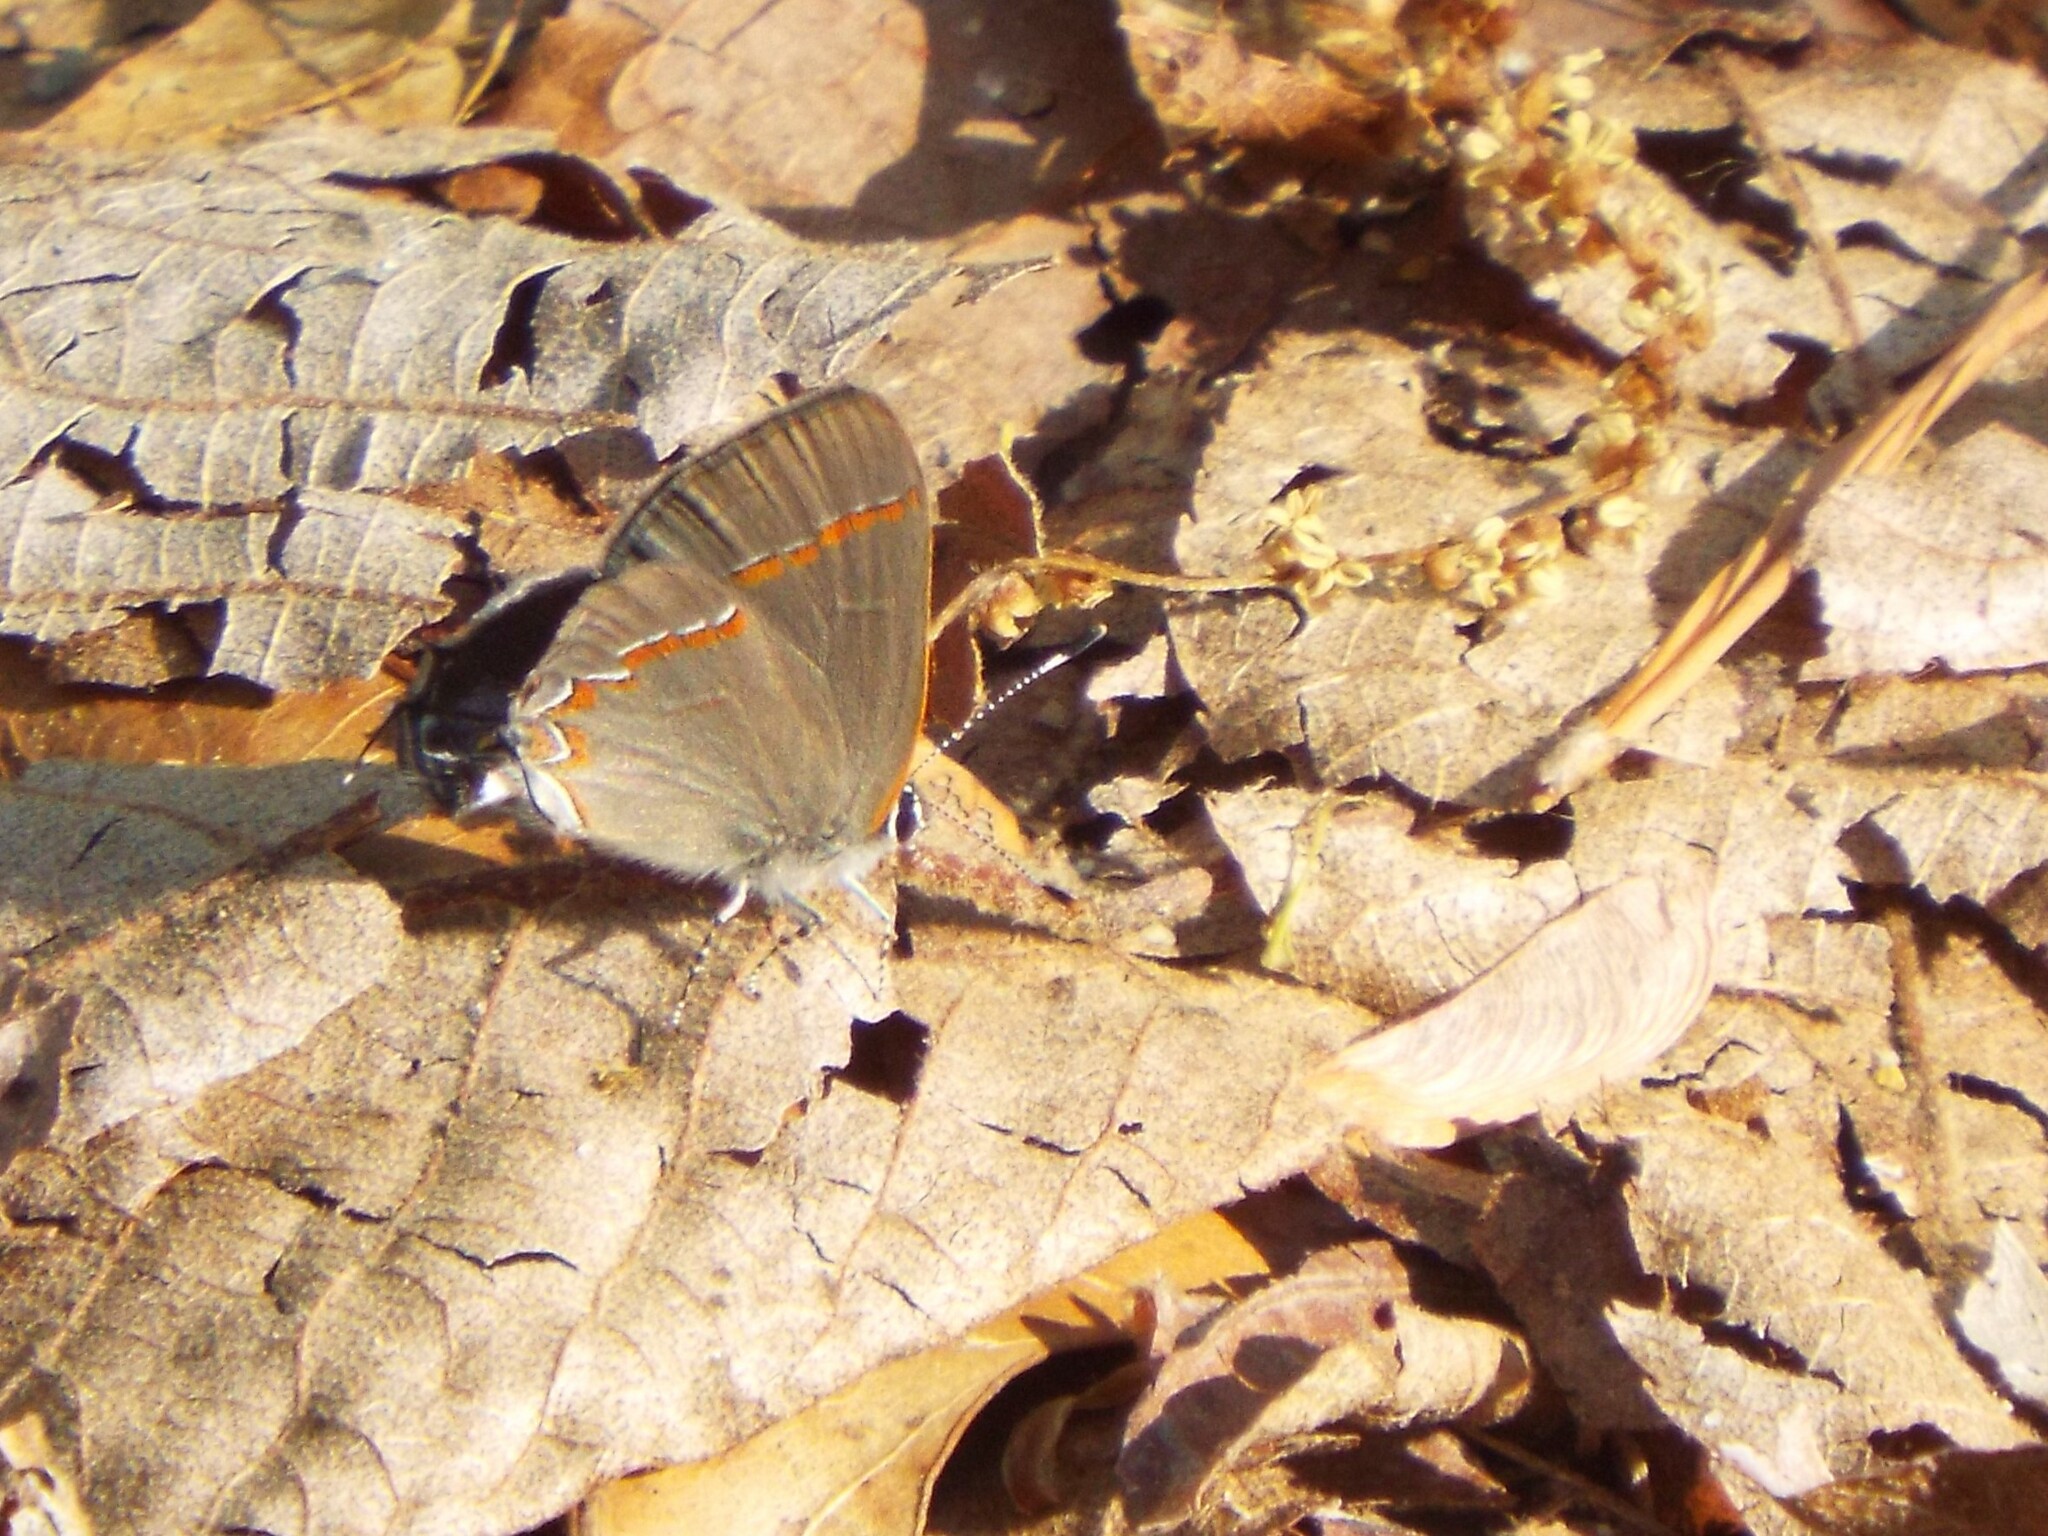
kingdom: Animalia
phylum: Arthropoda
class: Insecta
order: Lepidoptera
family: Lycaenidae
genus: Calycopis
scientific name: Calycopis cecrops
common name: Red-banded hairstreak
